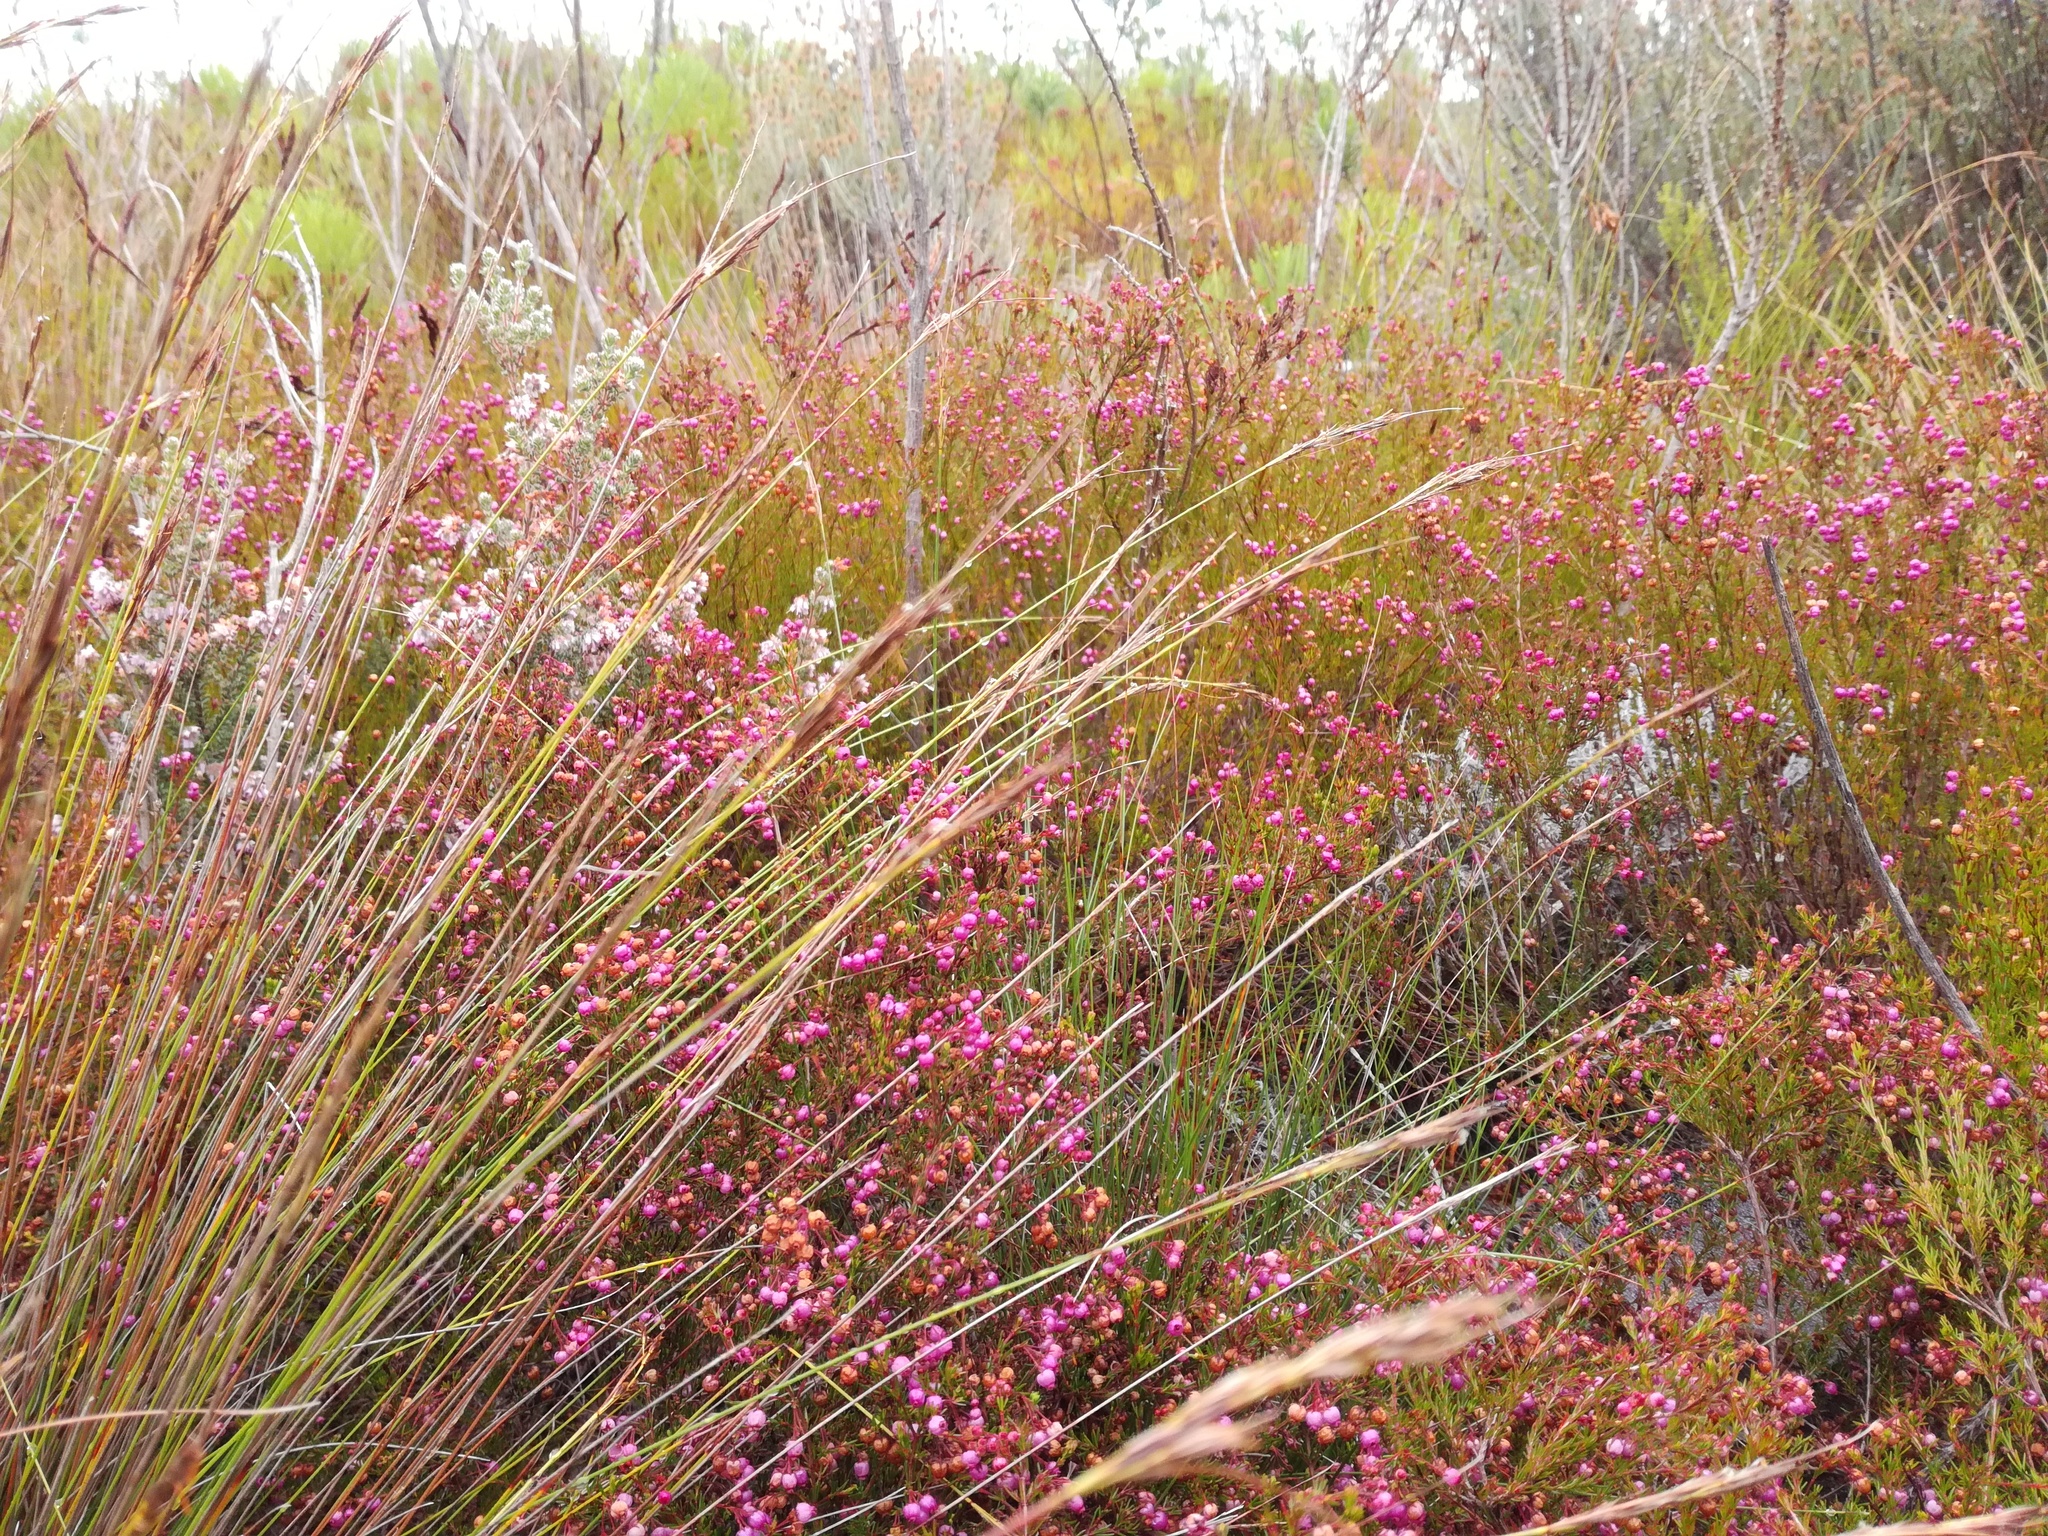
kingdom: Plantae
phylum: Tracheophyta
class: Magnoliopsida
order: Ericales
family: Ericaceae
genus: Erica
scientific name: Erica multumbellifera
